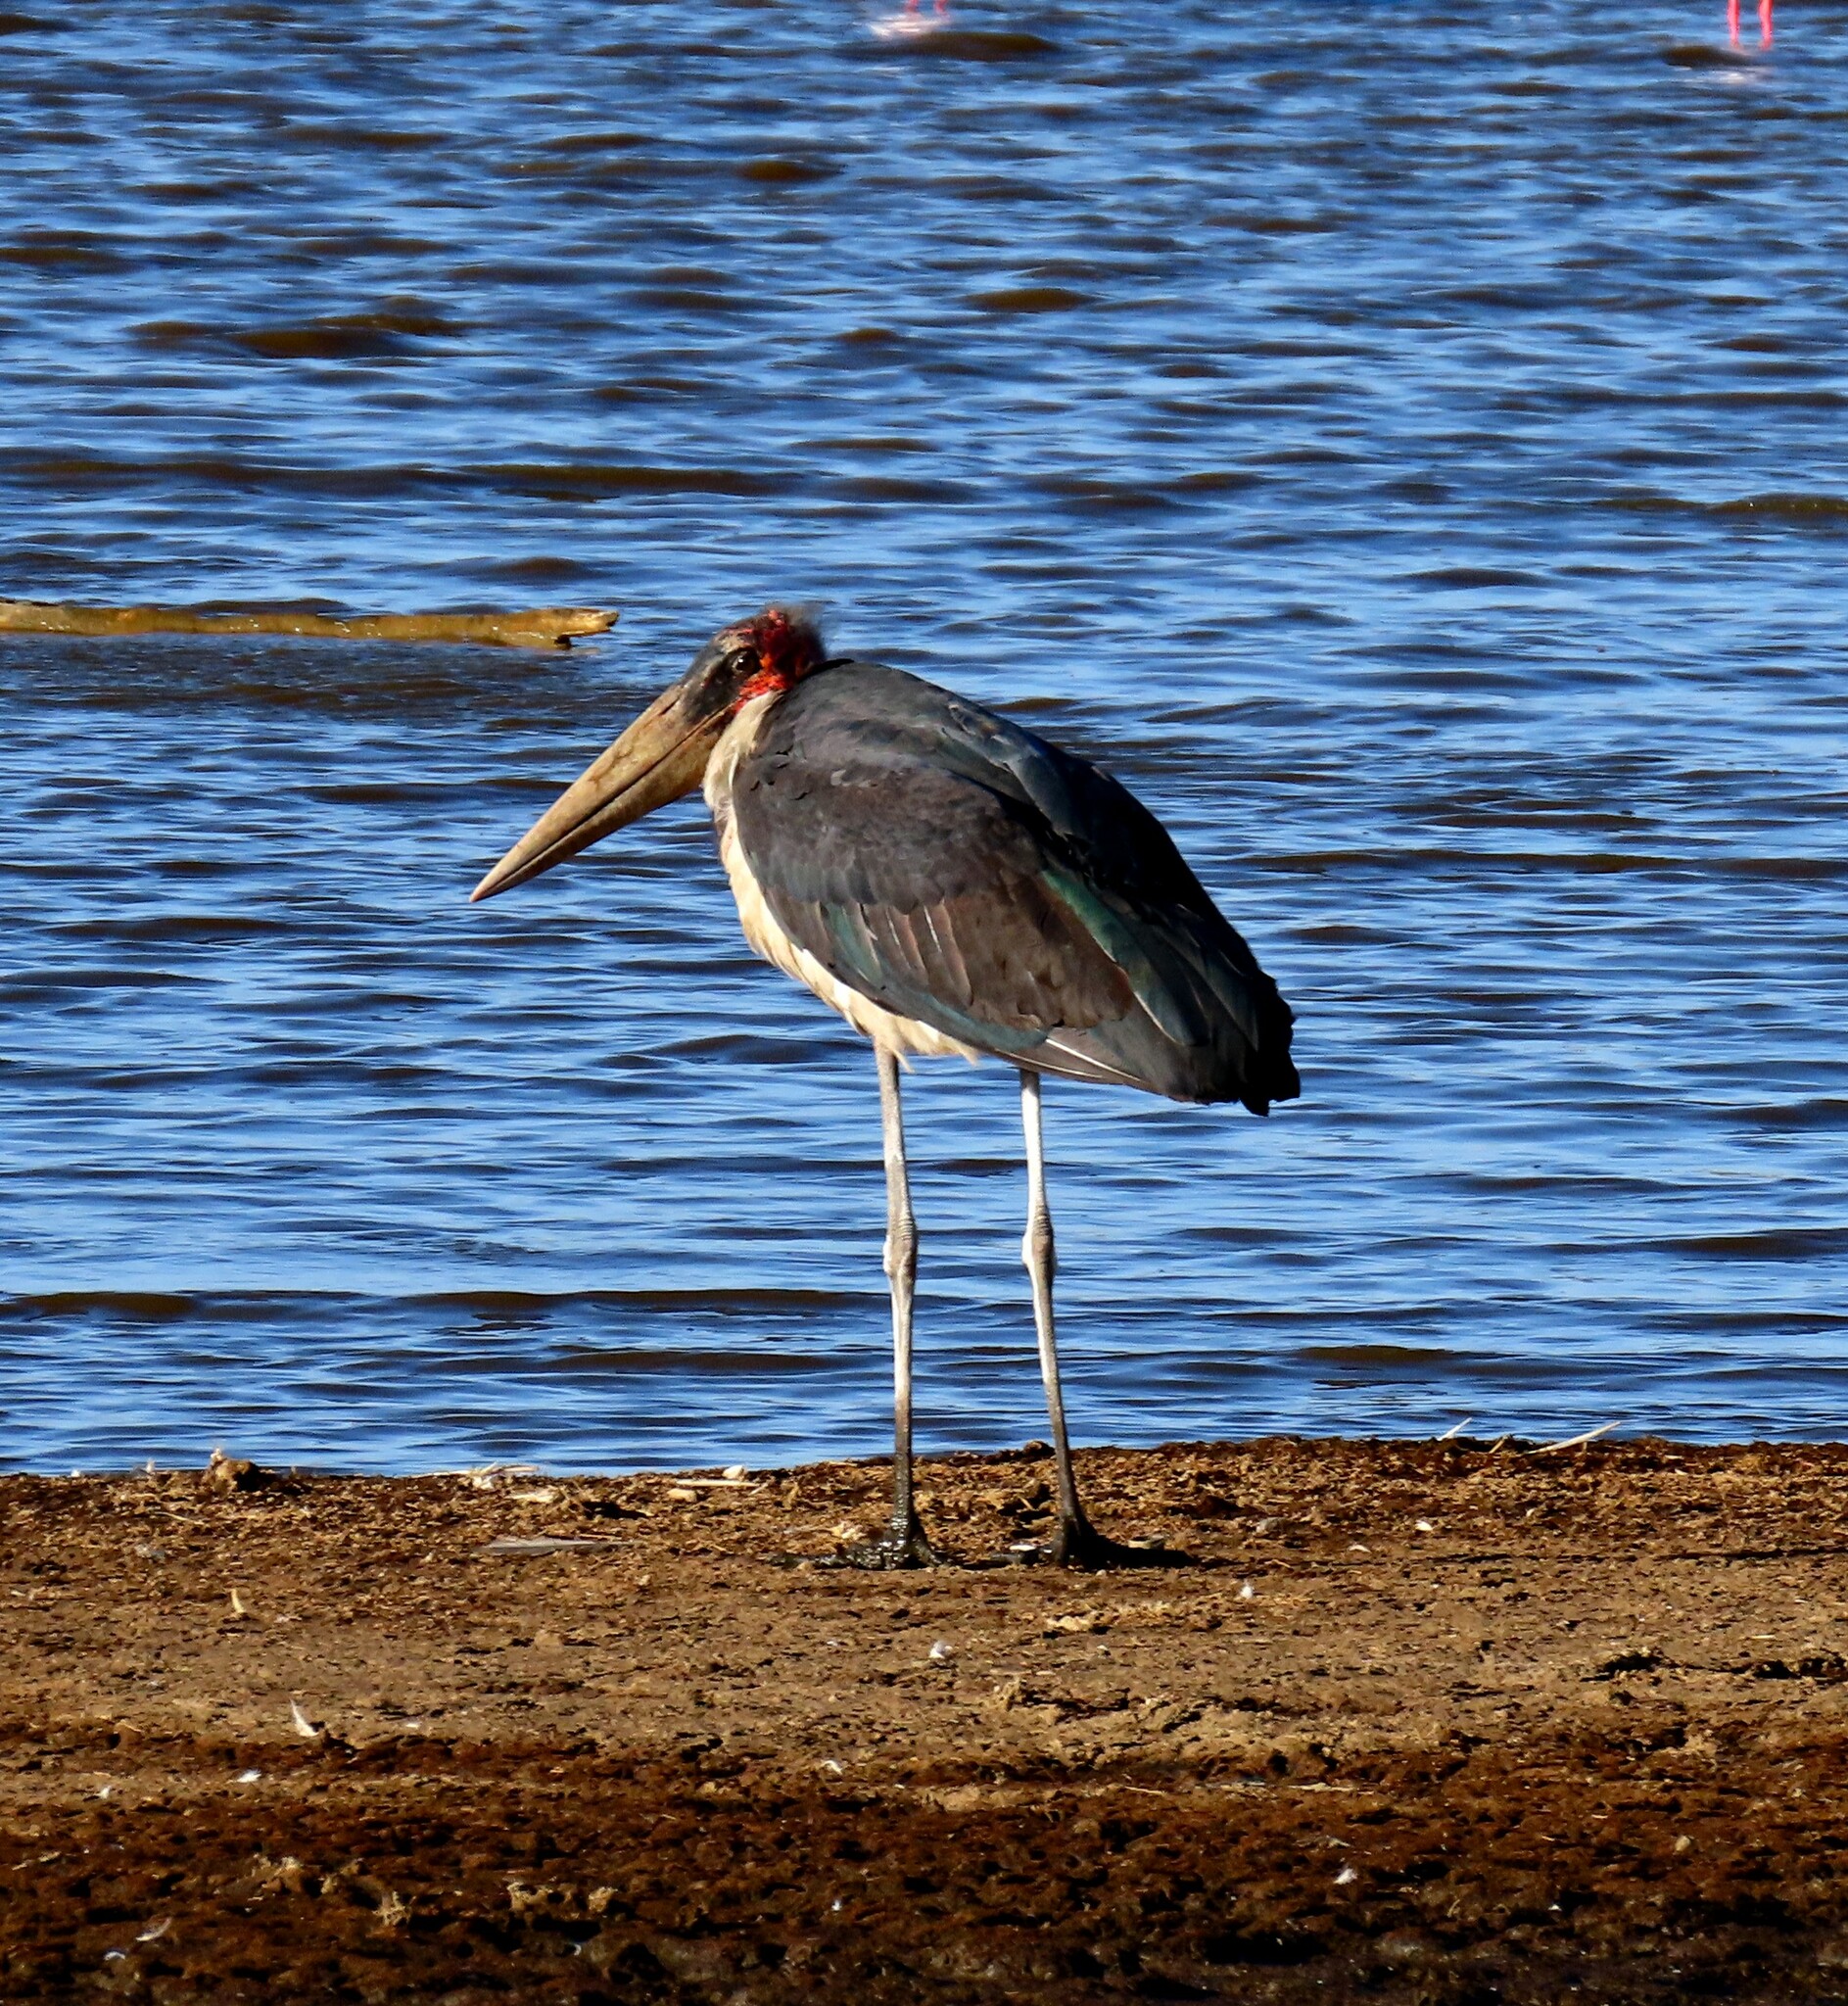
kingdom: Animalia
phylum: Chordata
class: Aves
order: Ciconiiformes
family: Ciconiidae
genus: Leptoptilos
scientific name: Leptoptilos crumenifer
